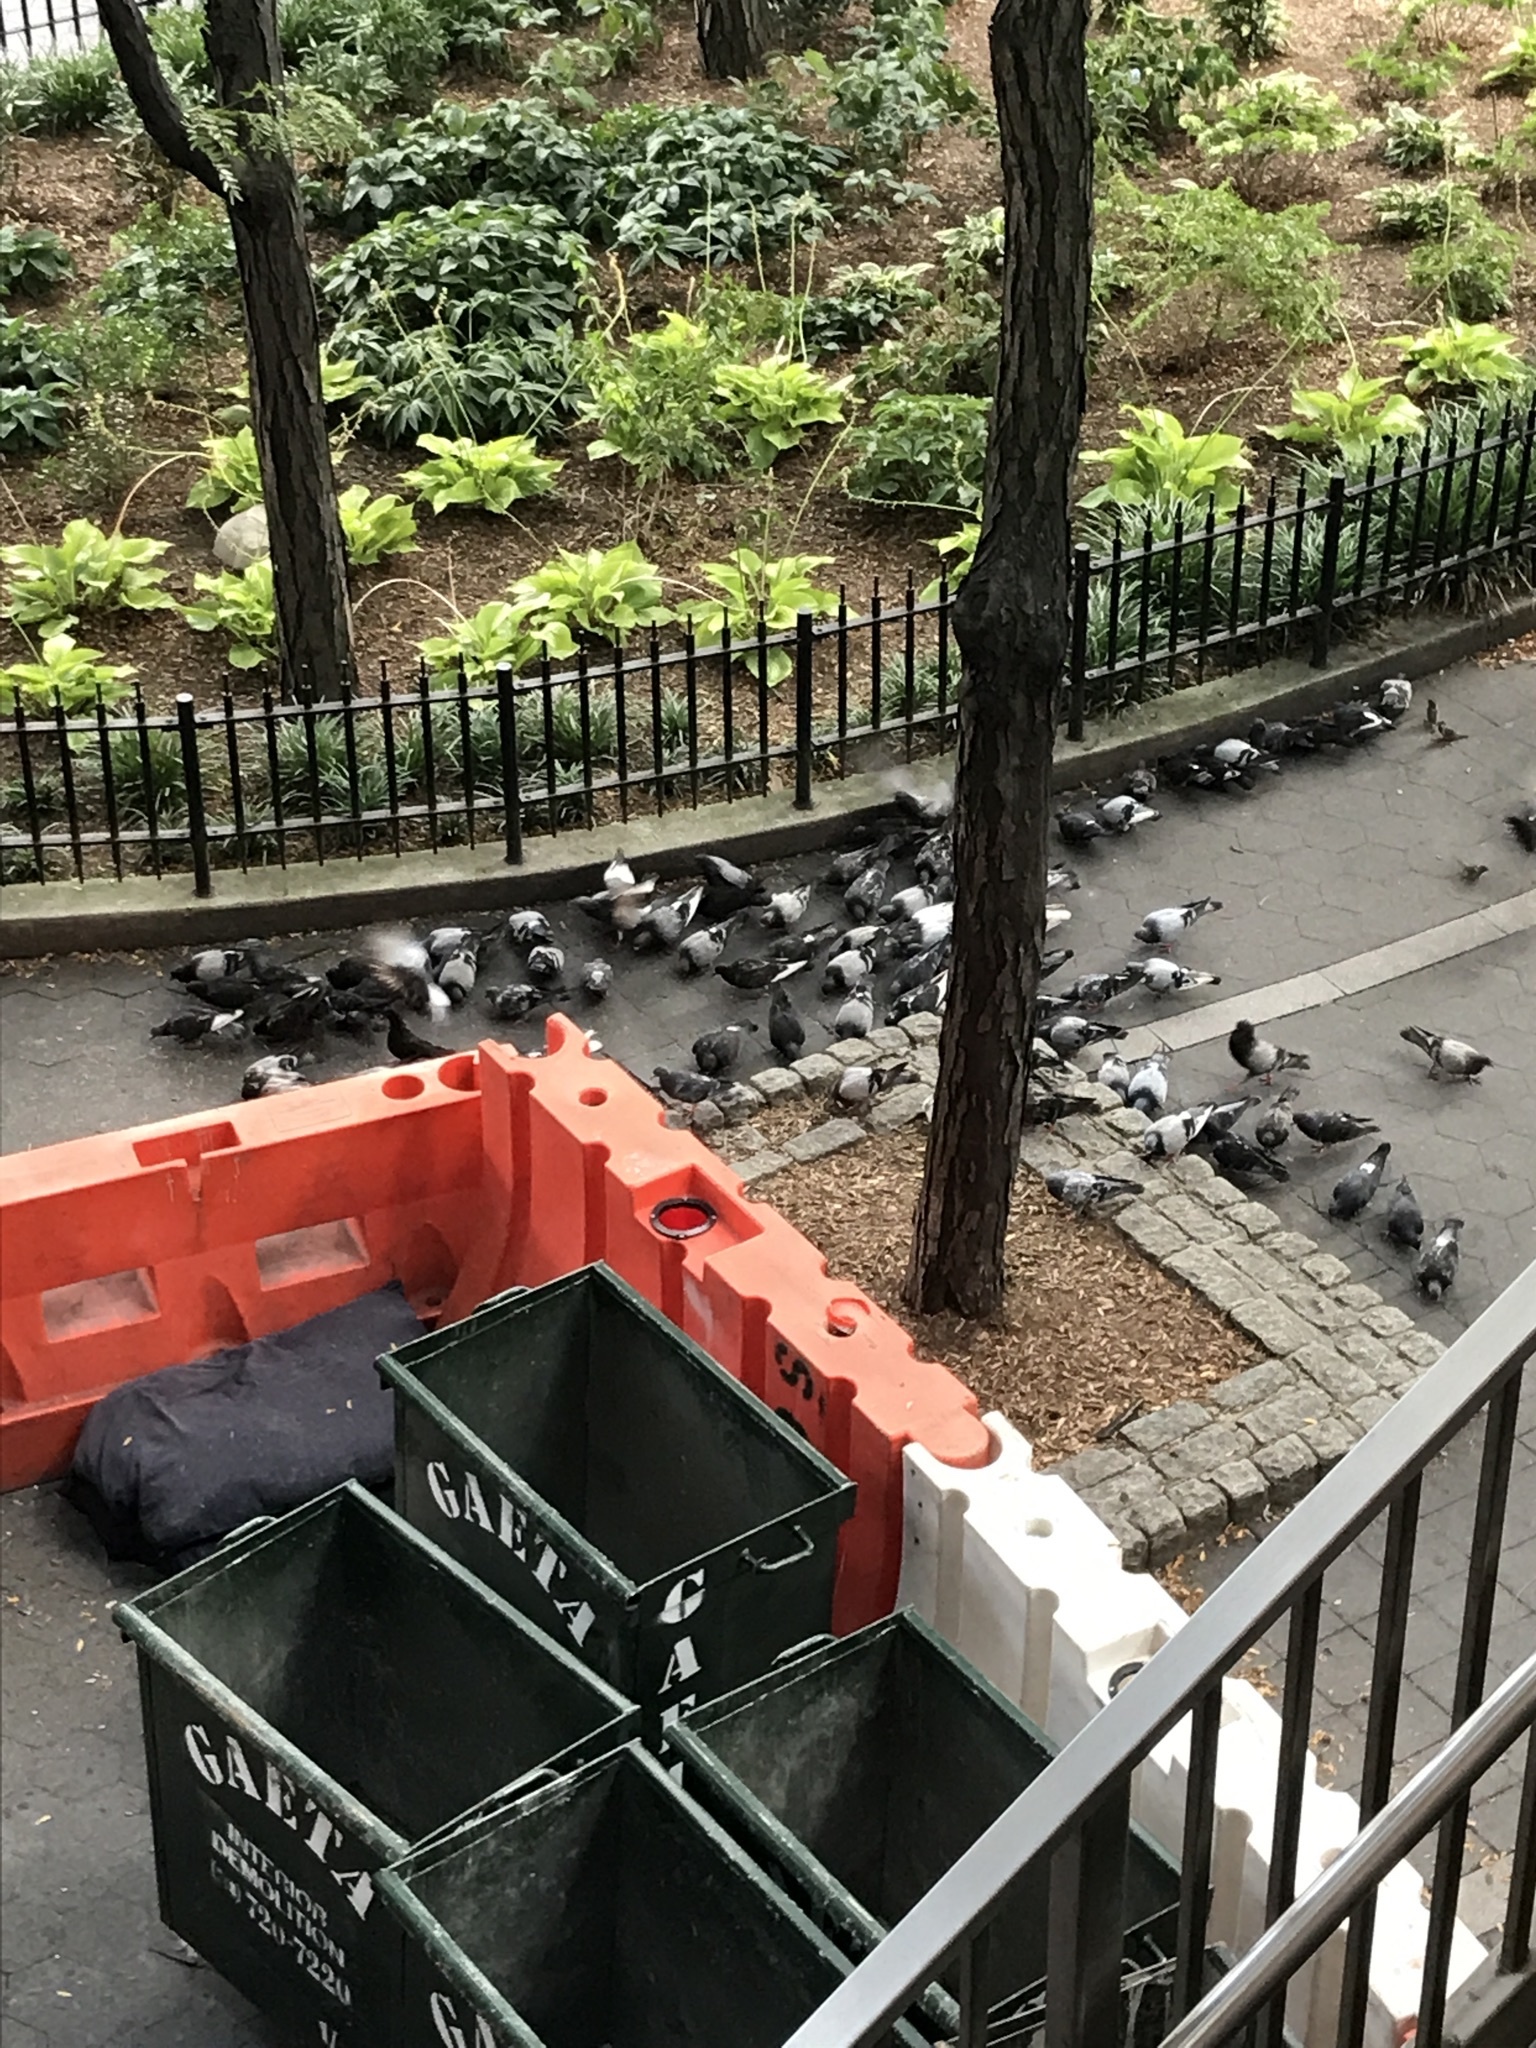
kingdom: Animalia
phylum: Chordata
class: Aves
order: Columbiformes
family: Columbidae
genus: Columba
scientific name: Columba livia
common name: Rock pigeon
